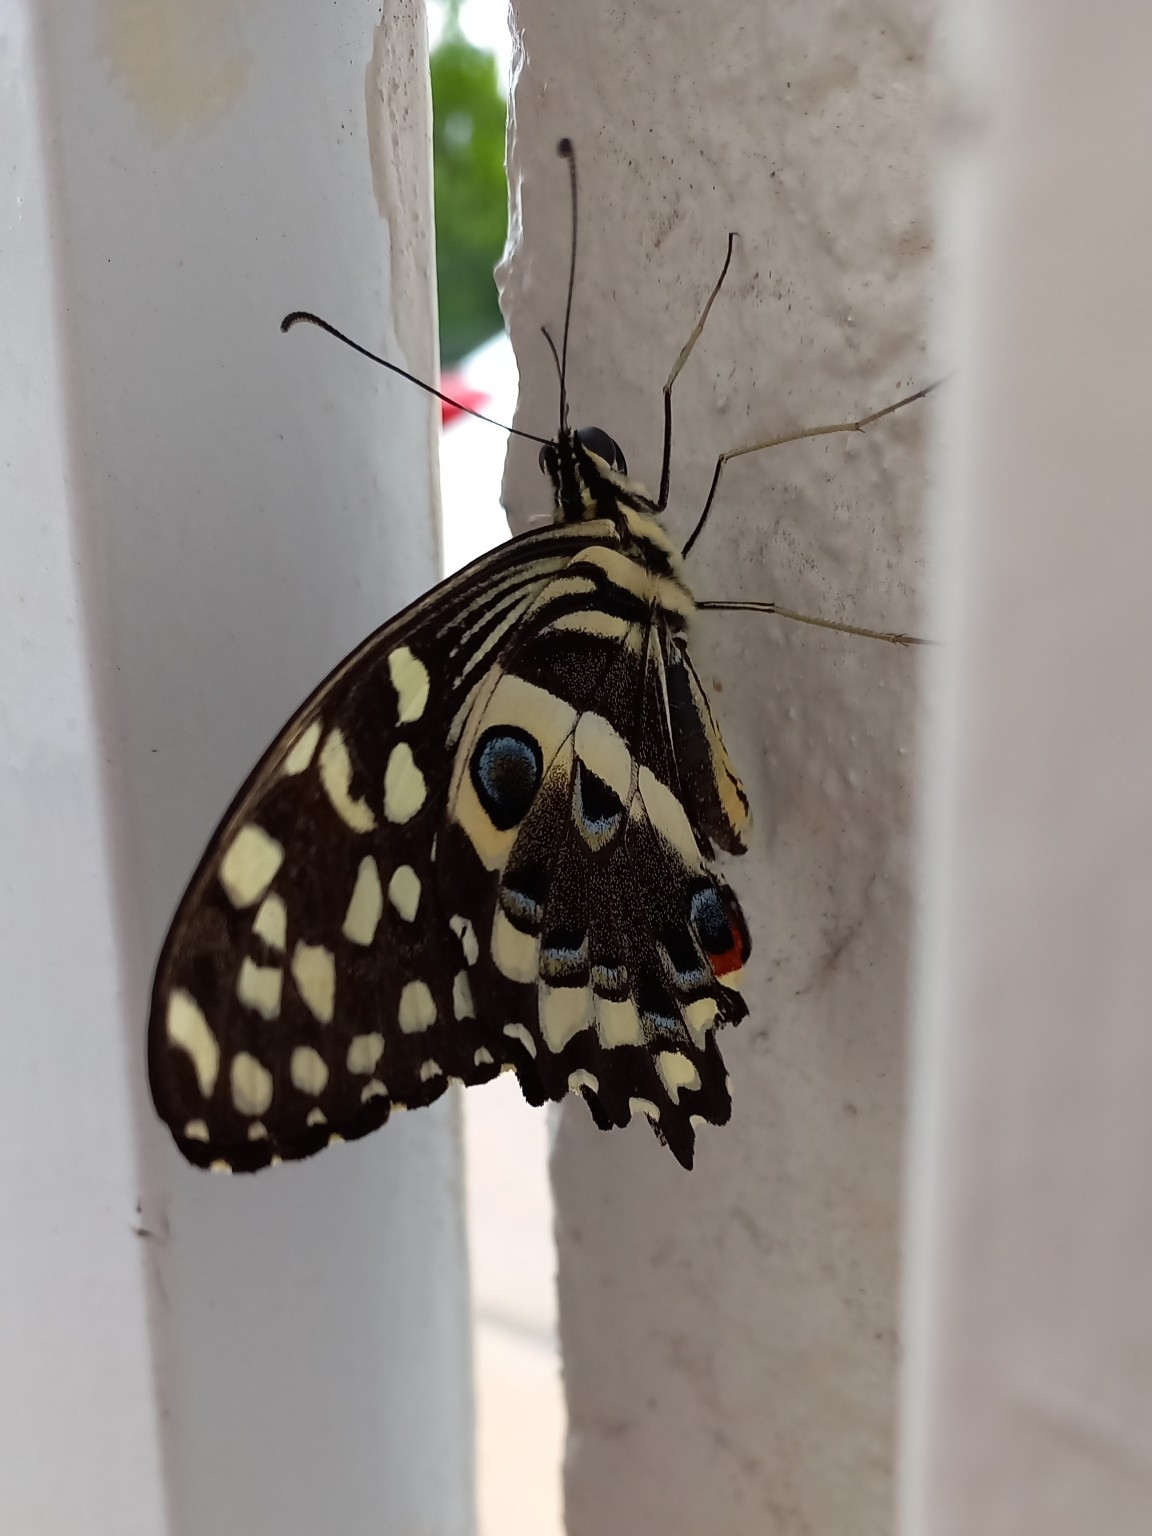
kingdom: Animalia
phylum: Arthropoda
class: Insecta
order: Lepidoptera
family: Papilionidae
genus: Papilio
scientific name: Papilio demodocus
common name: Christmas butterfly
